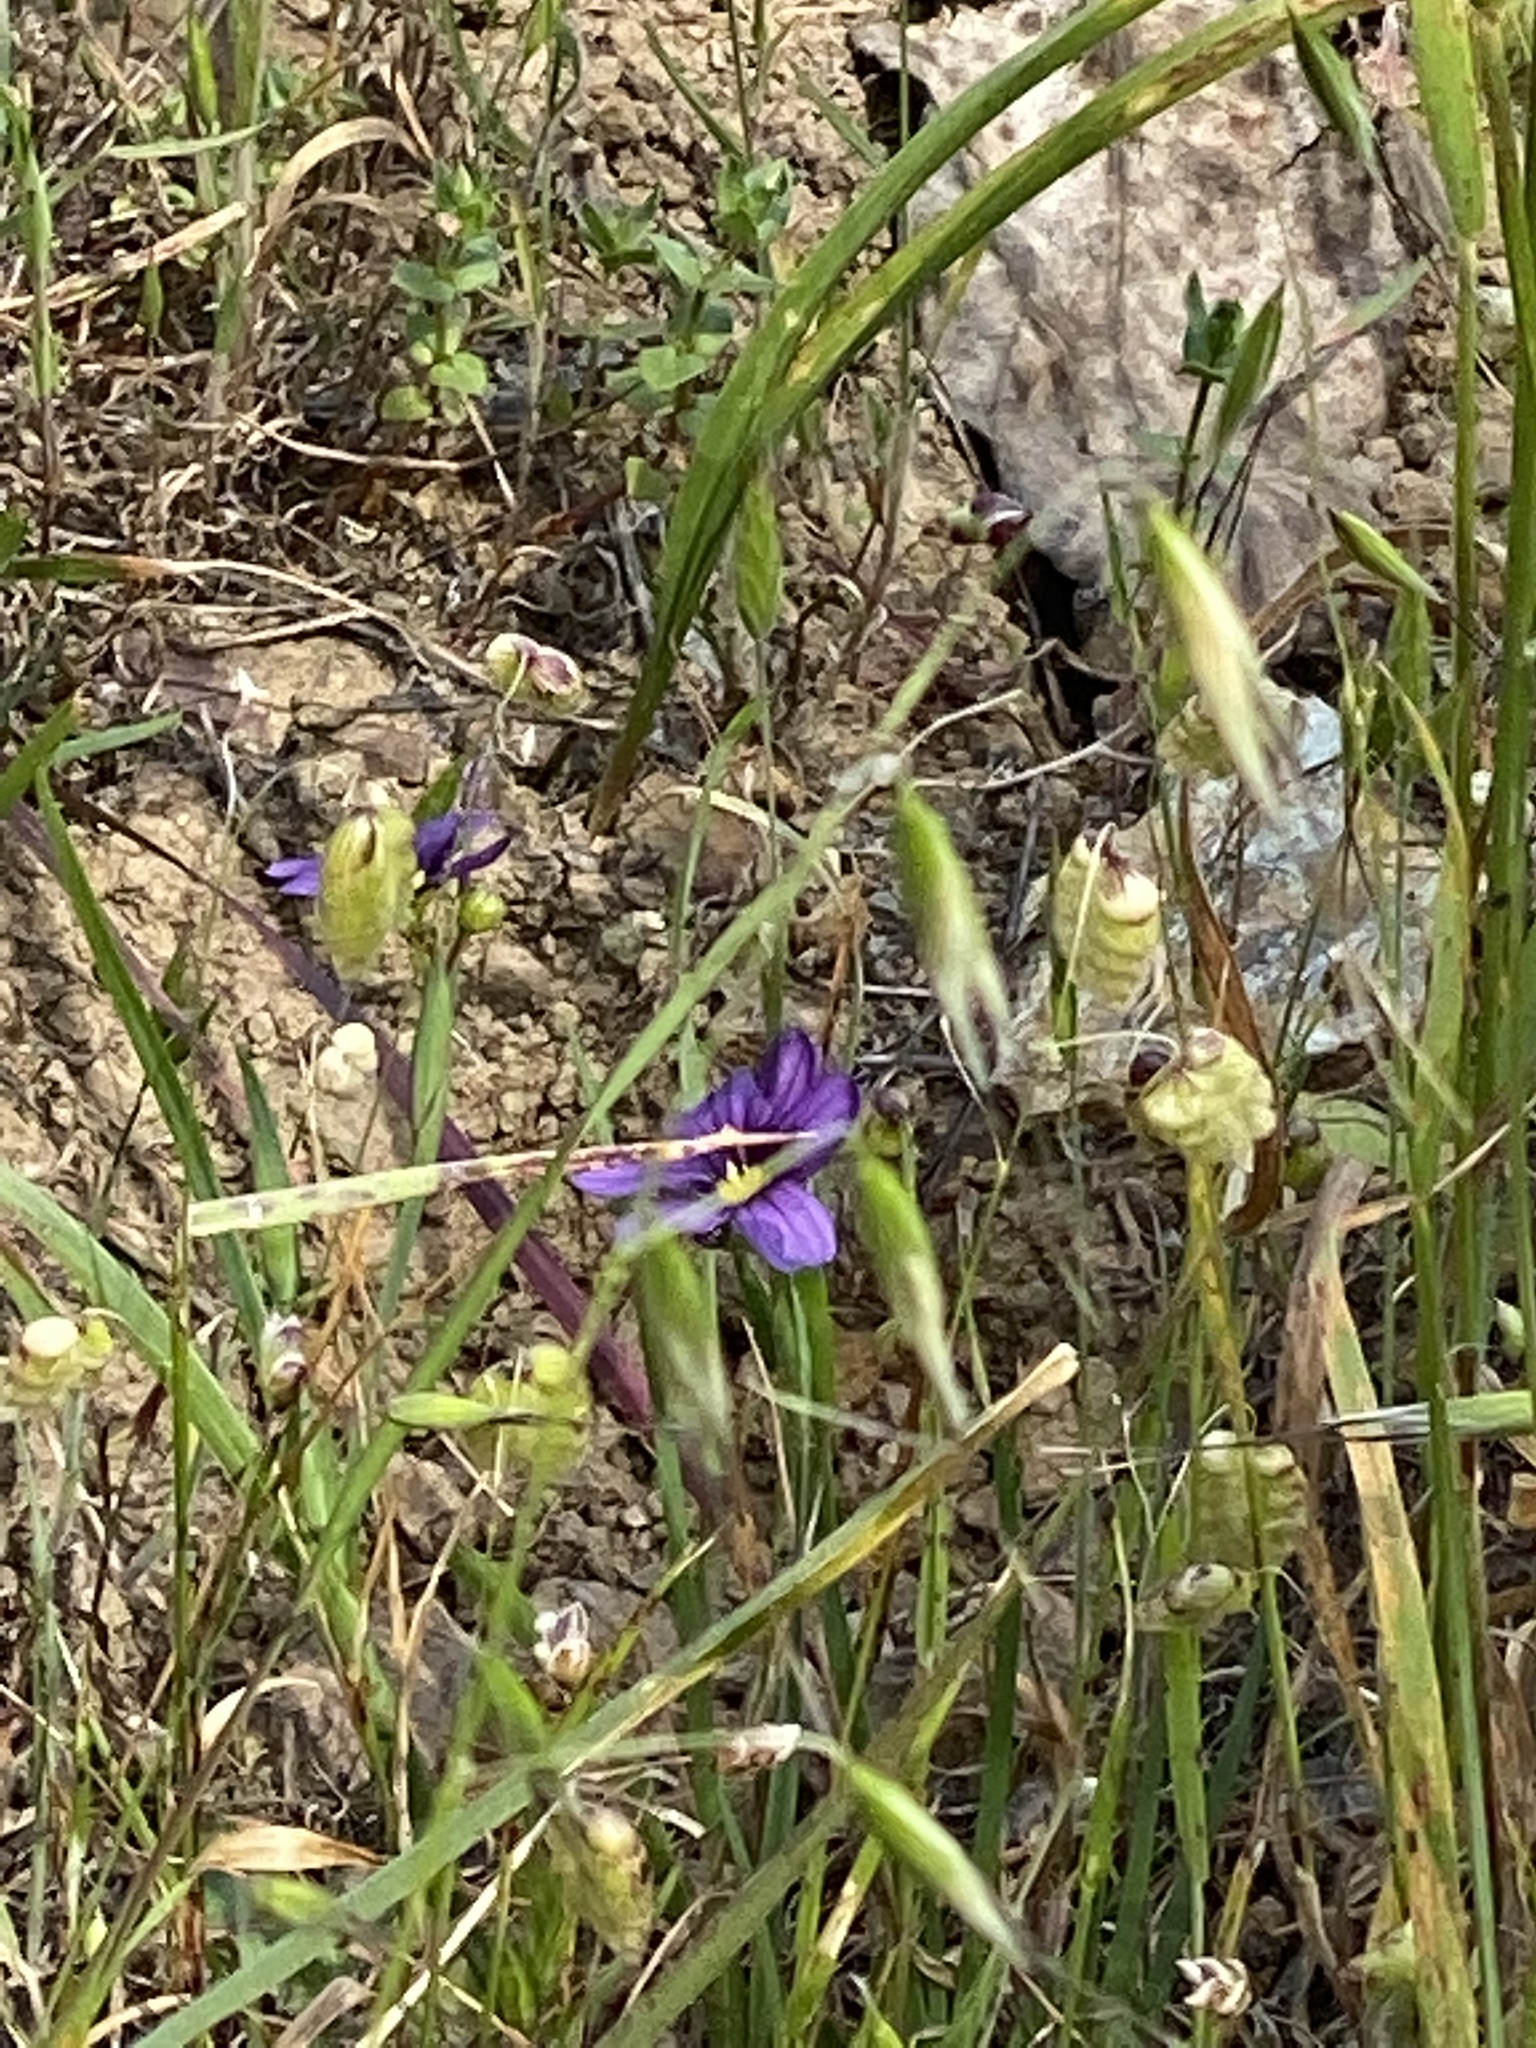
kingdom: Plantae
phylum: Tracheophyta
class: Liliopsida
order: Asparagales
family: Iridaceae
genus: Sisyrinchium
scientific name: Sisyrinchium bellum
